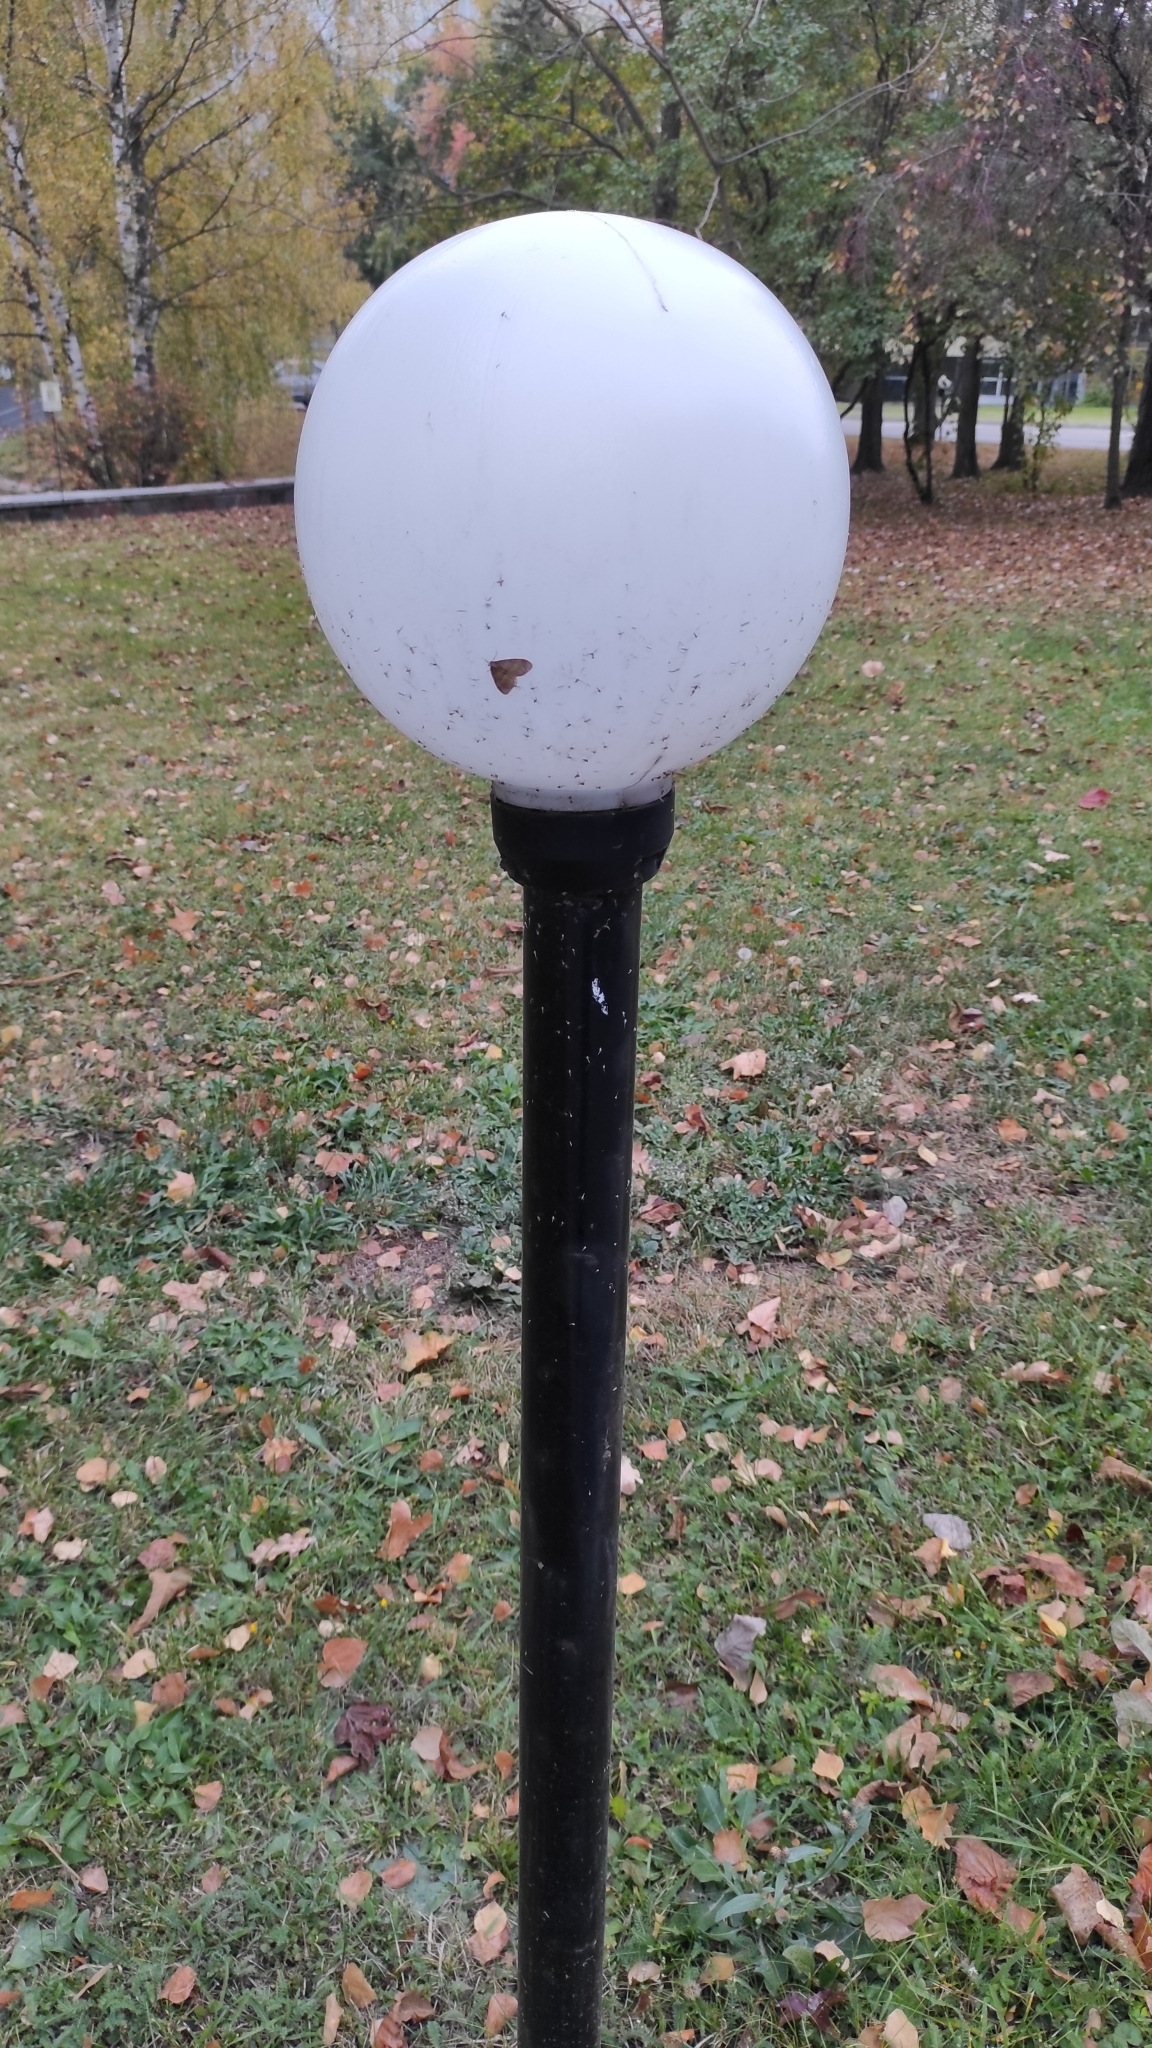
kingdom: Animalia
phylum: Arthropoda
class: Insecta
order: Lepidoptera
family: Geometridae
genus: Operophtera
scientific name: Operophtera brumata
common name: Winter moth
